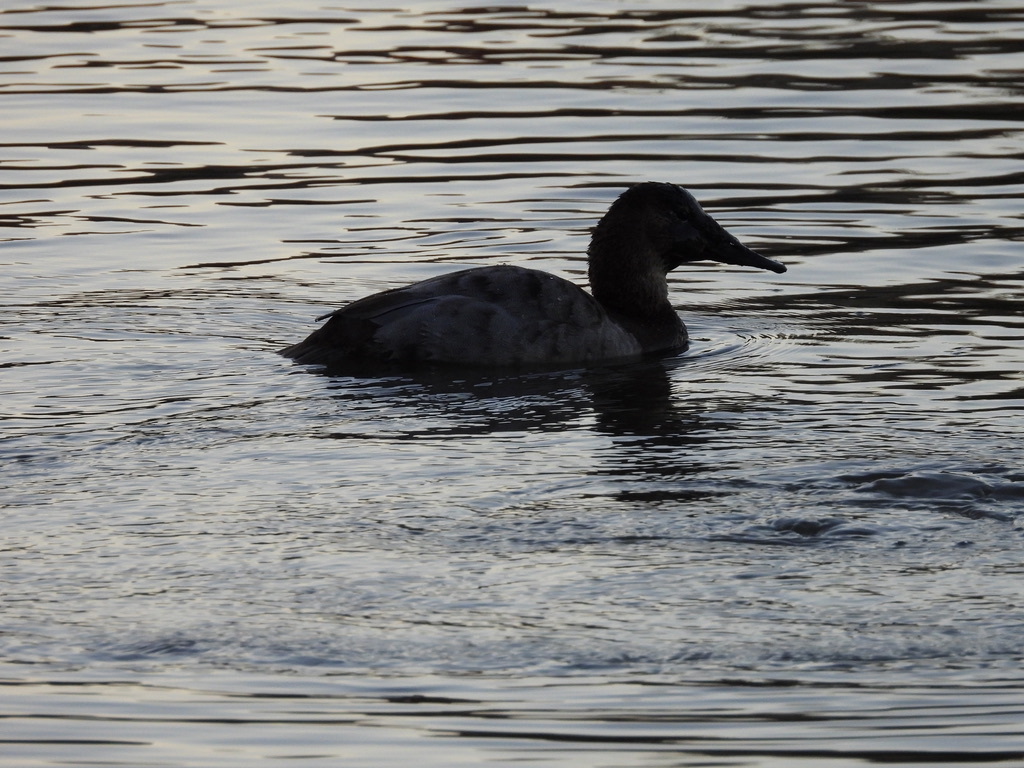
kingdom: Animalia
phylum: Chordata
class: Aves
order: Anseriformes
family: Anatidae
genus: Aythya
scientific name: Aythya valisineria
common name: Canvasback
